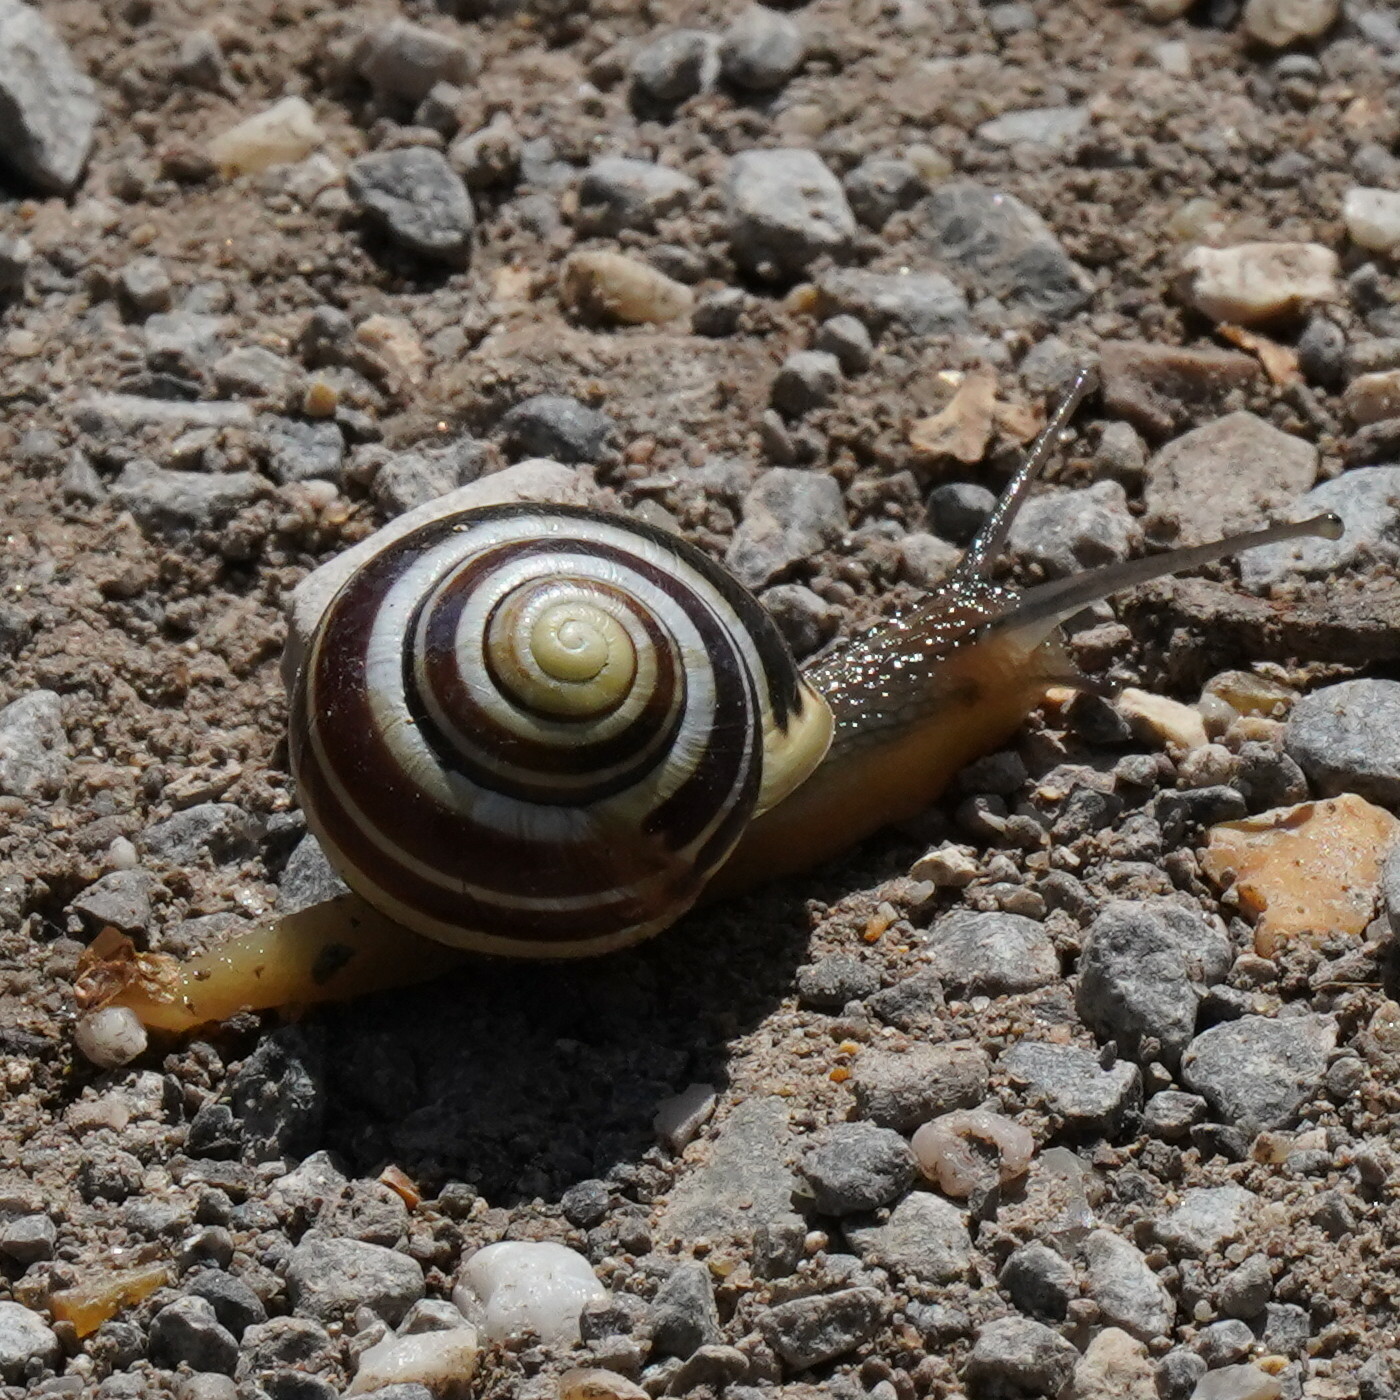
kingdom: Animalia
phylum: Mollusca
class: Gastropoda
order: Stylommatophora
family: Helicidae
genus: Cepaea
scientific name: Cepaea hortensis
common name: White-lip gardensnail
